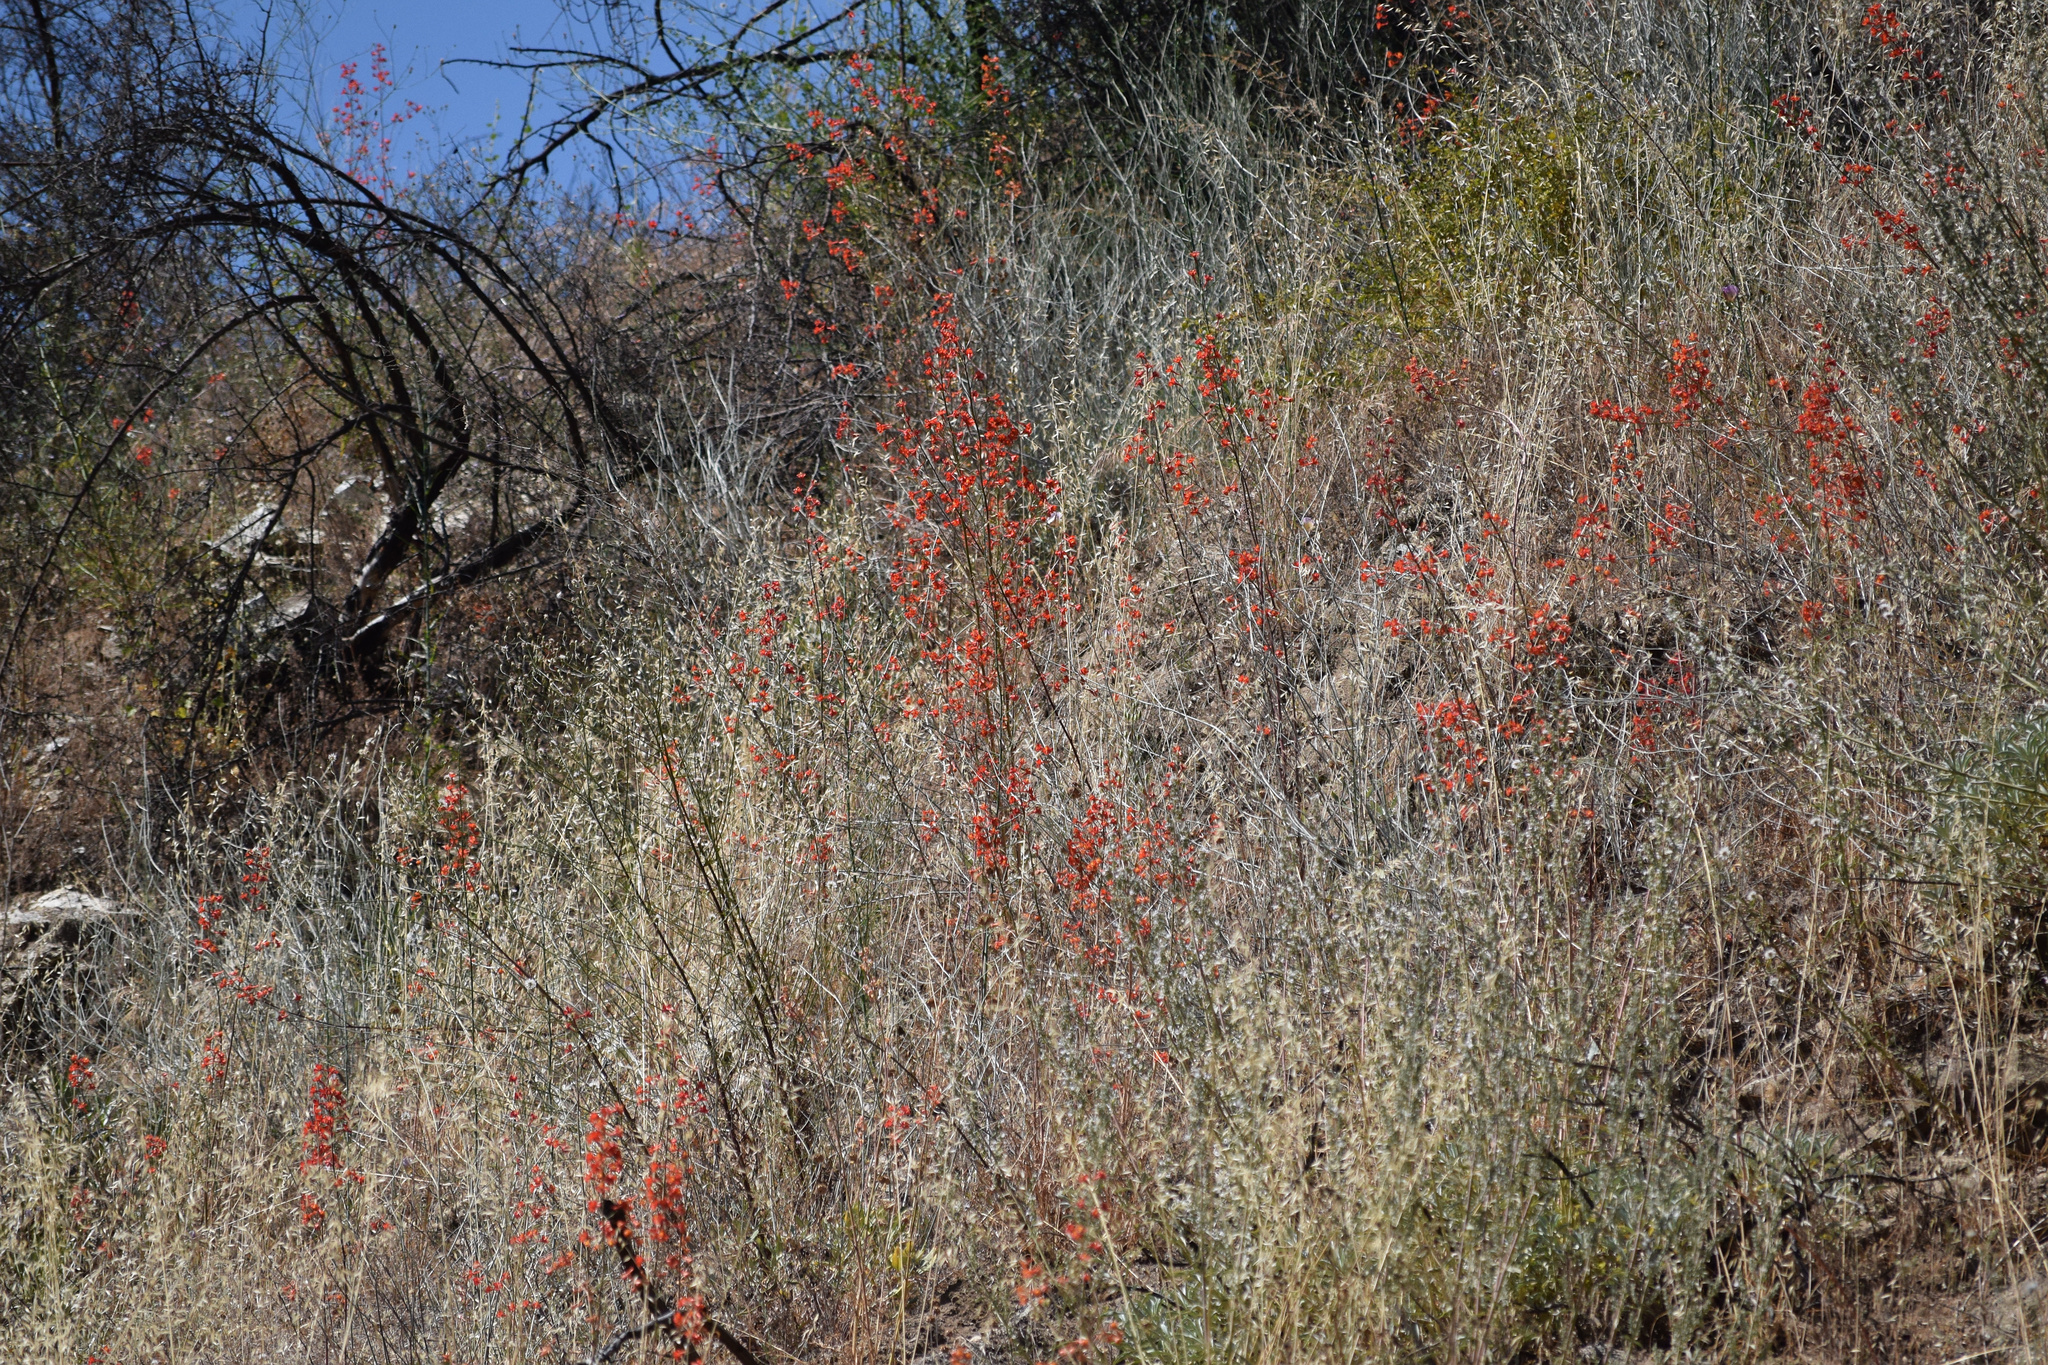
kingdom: Plantae
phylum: Tracheophyta
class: Magnoliopsida
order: Ranunculales
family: Ranunculaceae
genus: Delphinium
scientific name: Delphinium cardinale
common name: Scarlet larkspur
